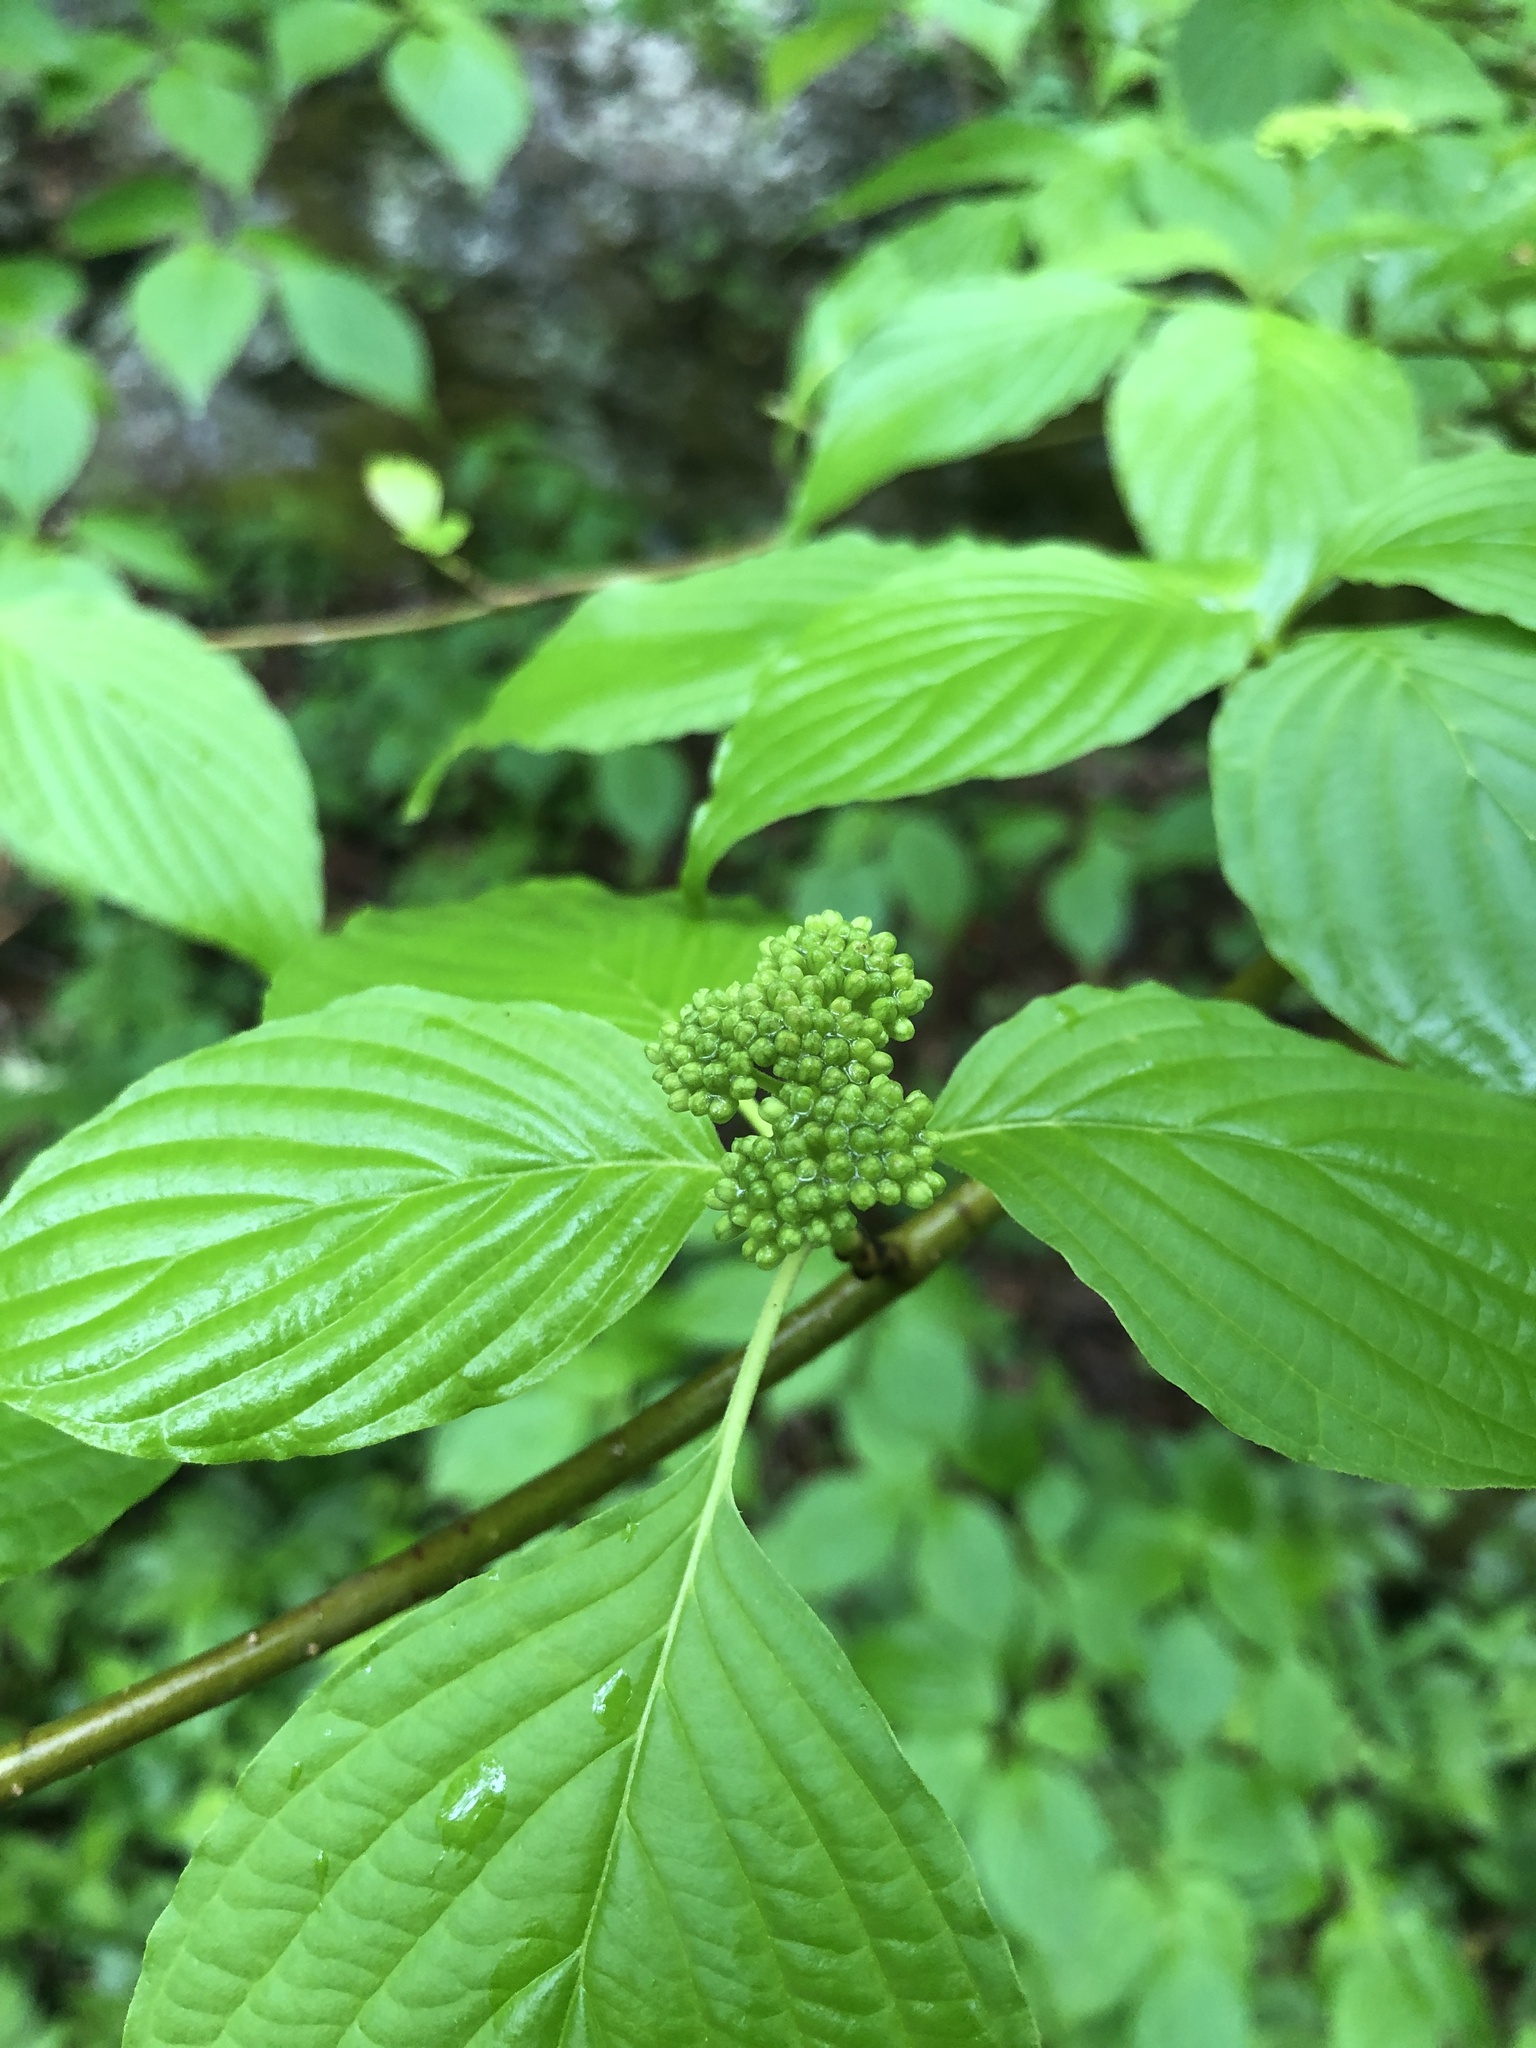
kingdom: Plantae
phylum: Tracheophyta
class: Magnoliopsida
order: Cornales
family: Cornaceae
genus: Cornus
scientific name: Cornus alternifolia
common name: Pagoda dogwood
